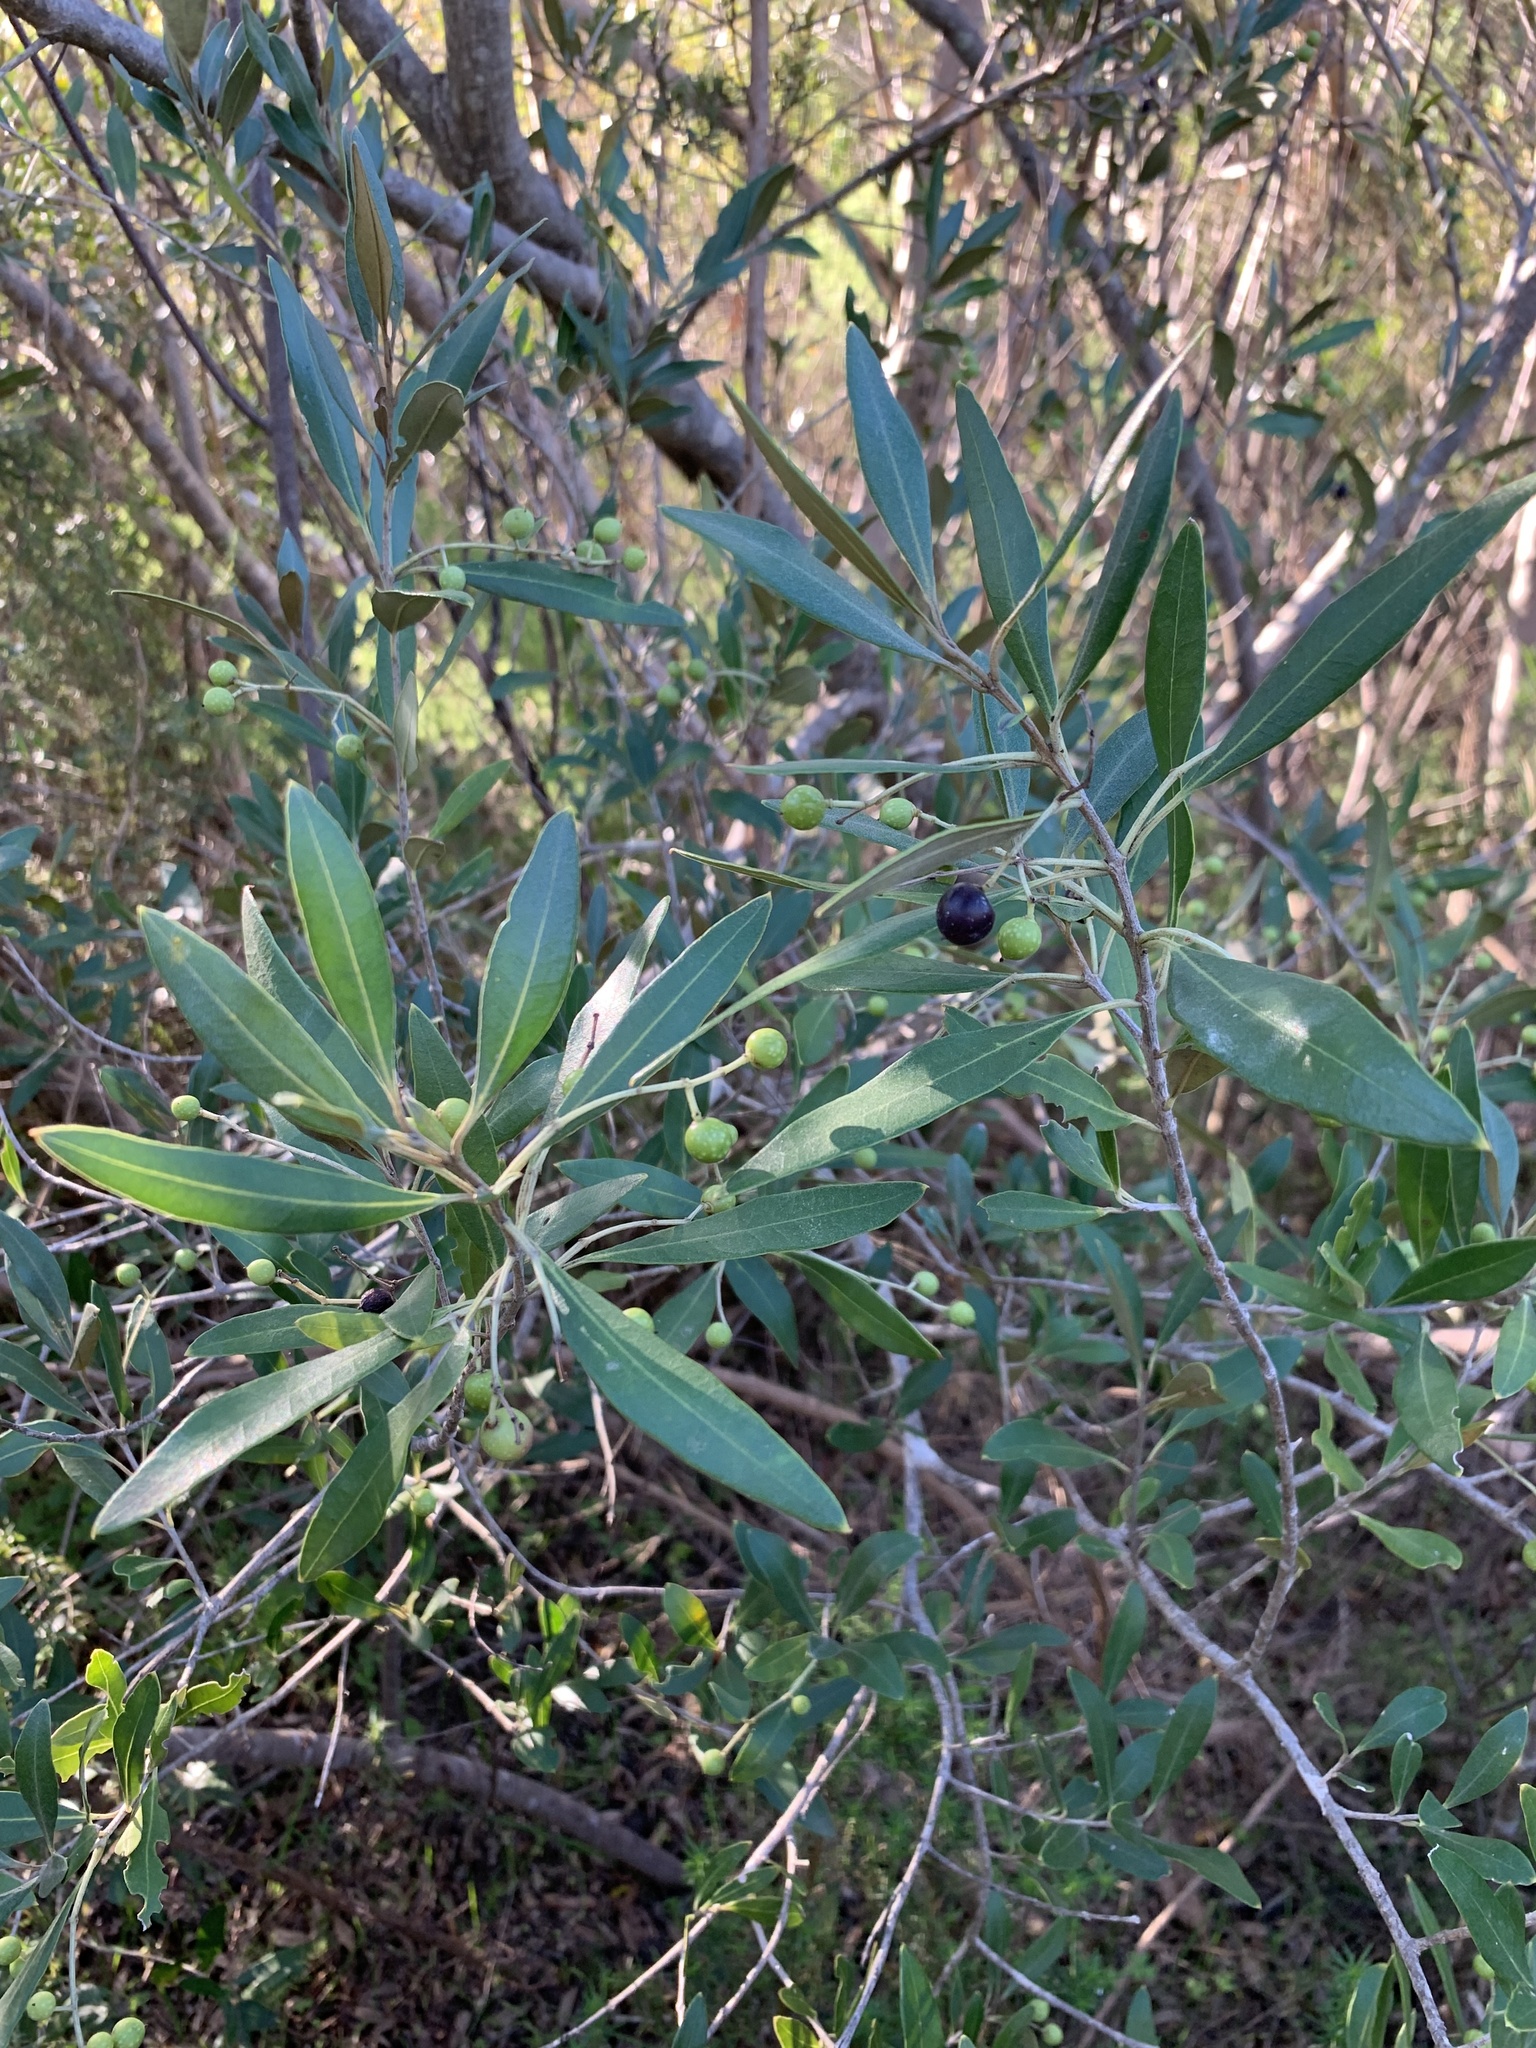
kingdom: Plantae
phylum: Tracheophyta
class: Magnoliopsida
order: Lamiales
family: Oleaceae
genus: Olea
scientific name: Olea europaea
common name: Olive
